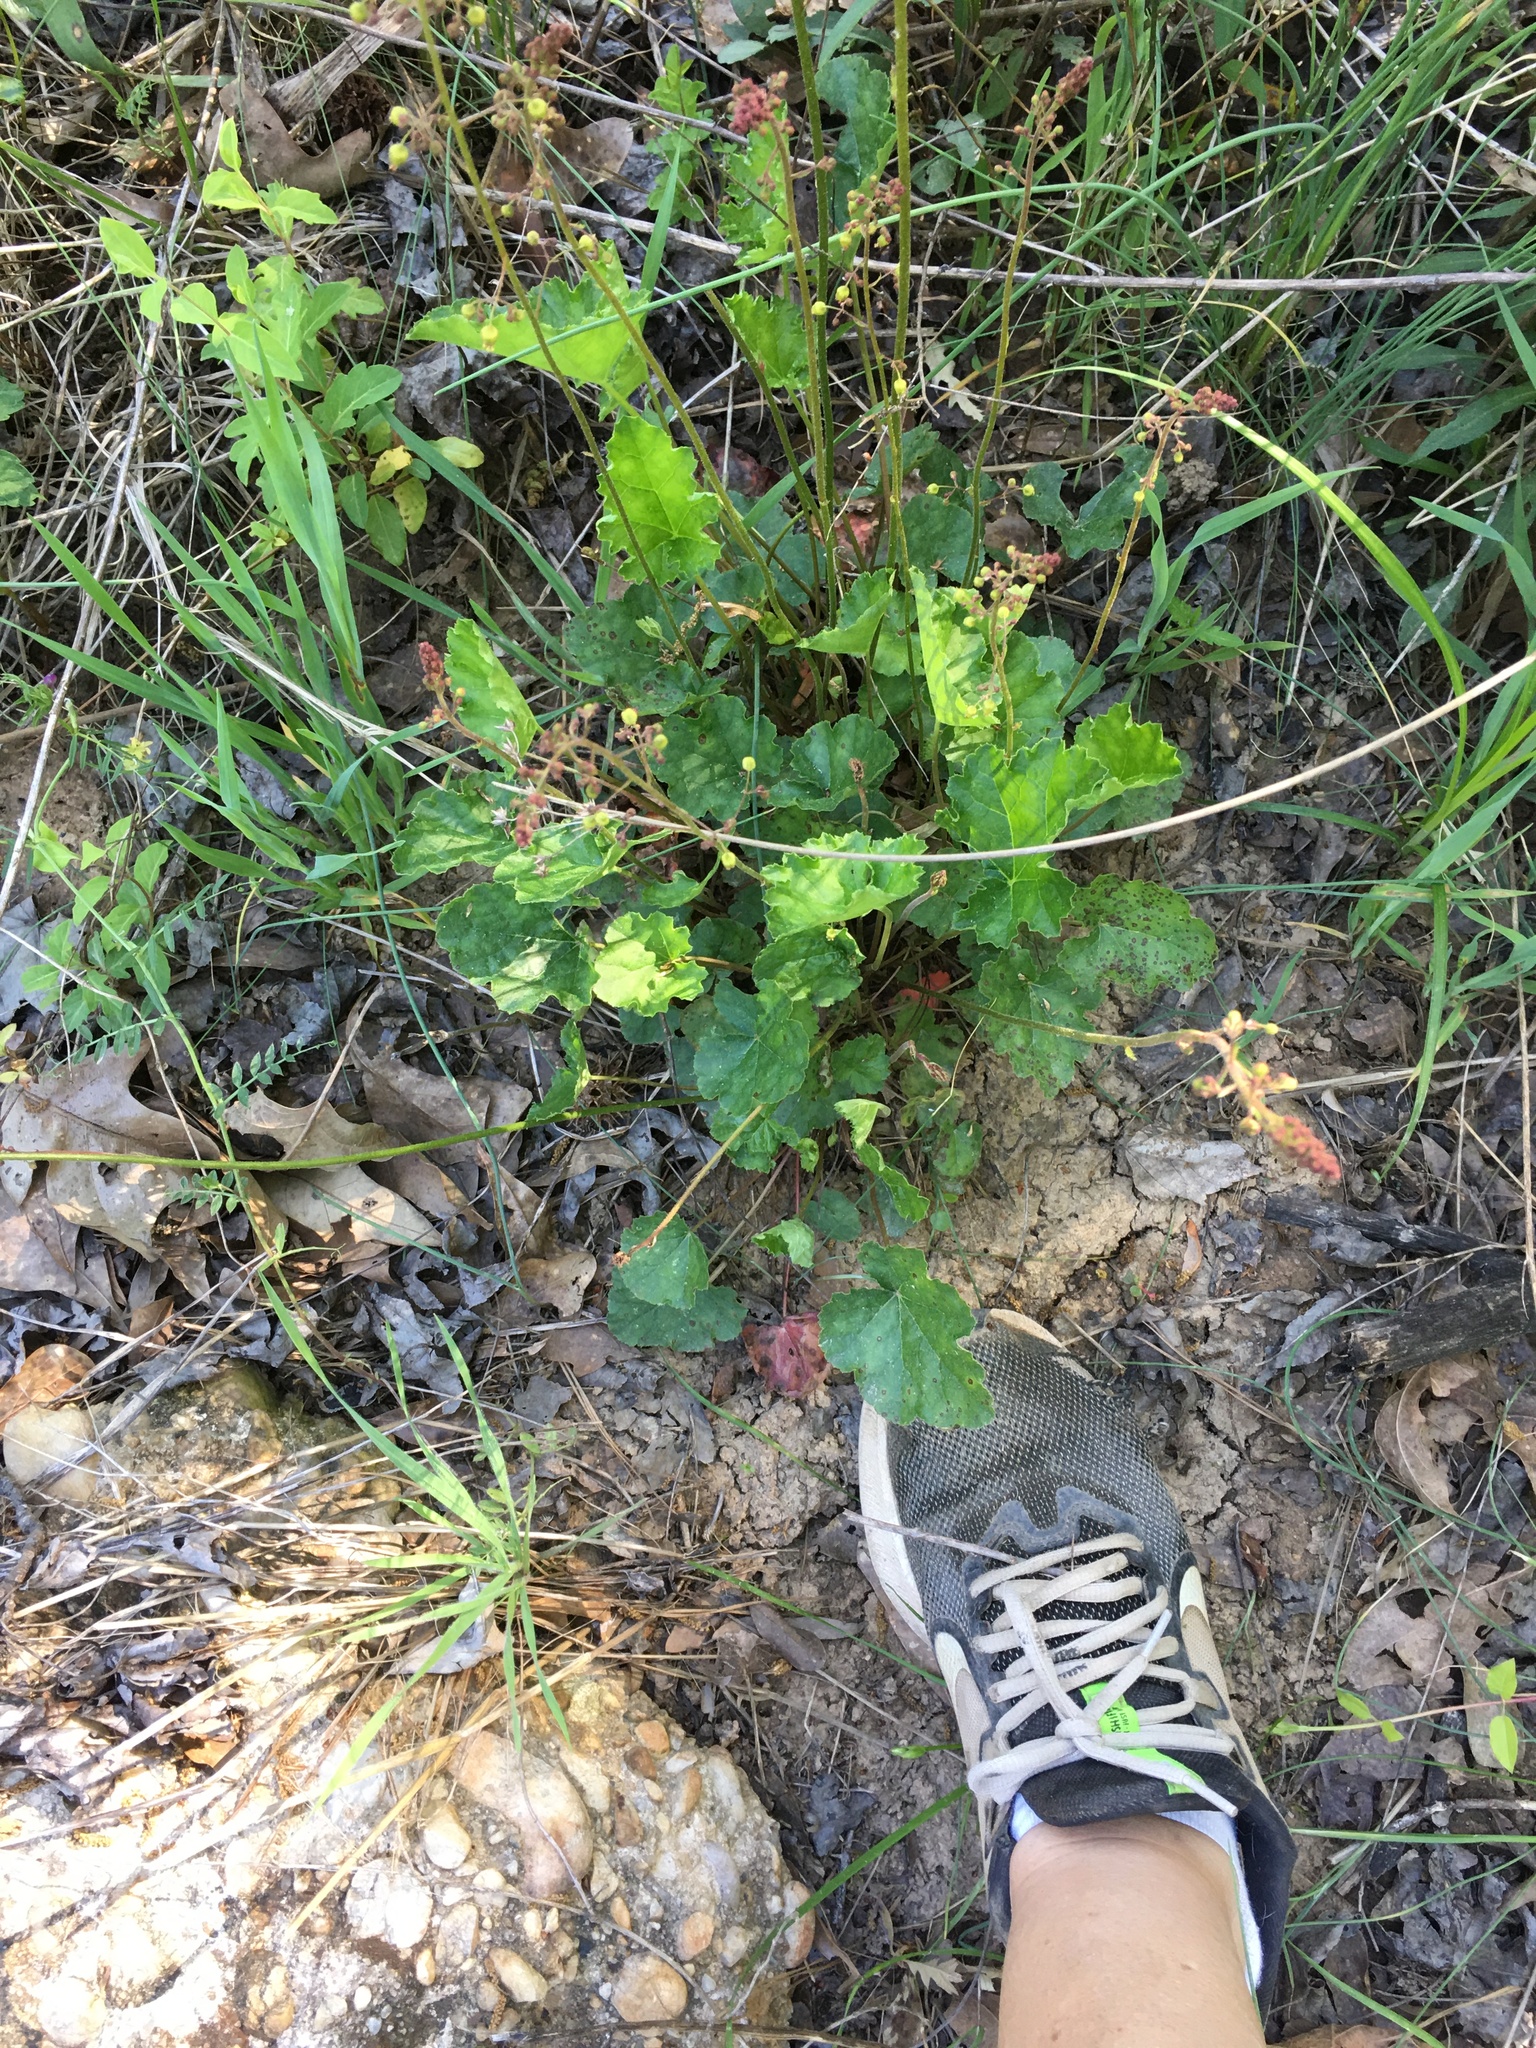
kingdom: Plantae
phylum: Tracheophyta
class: Magnoliopsida
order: Saxifragales
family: Saxifragaceae
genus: Heuchera
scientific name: Heuchera caroliniana
